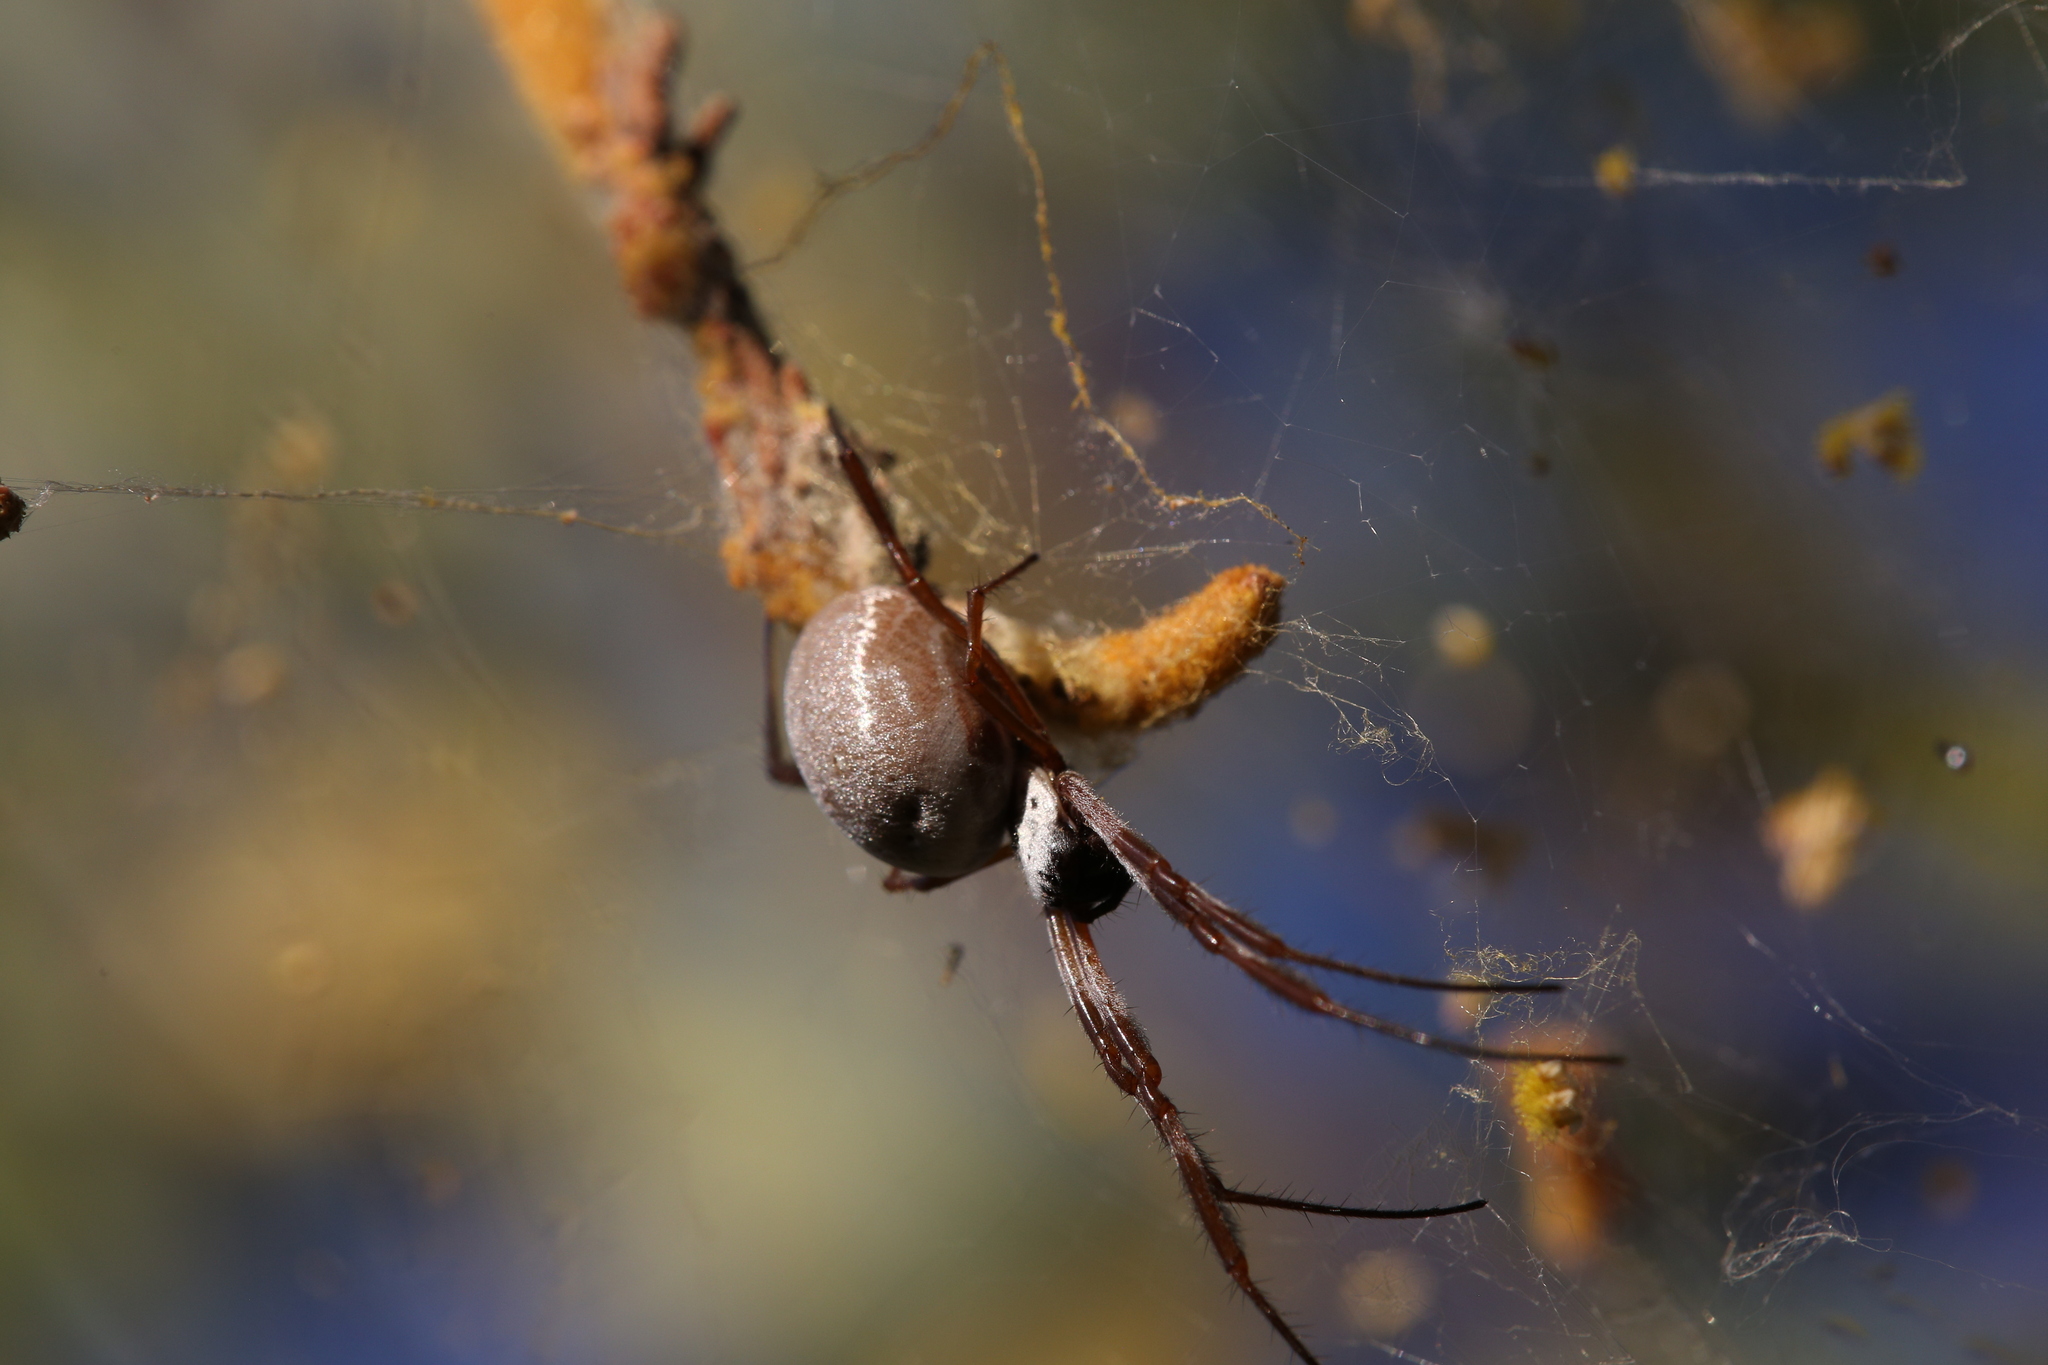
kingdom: Animalia
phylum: Arthropoda
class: Arachnida
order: Araneae
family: Araneidae
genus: Trichonephila
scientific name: Trichonephila edulis
